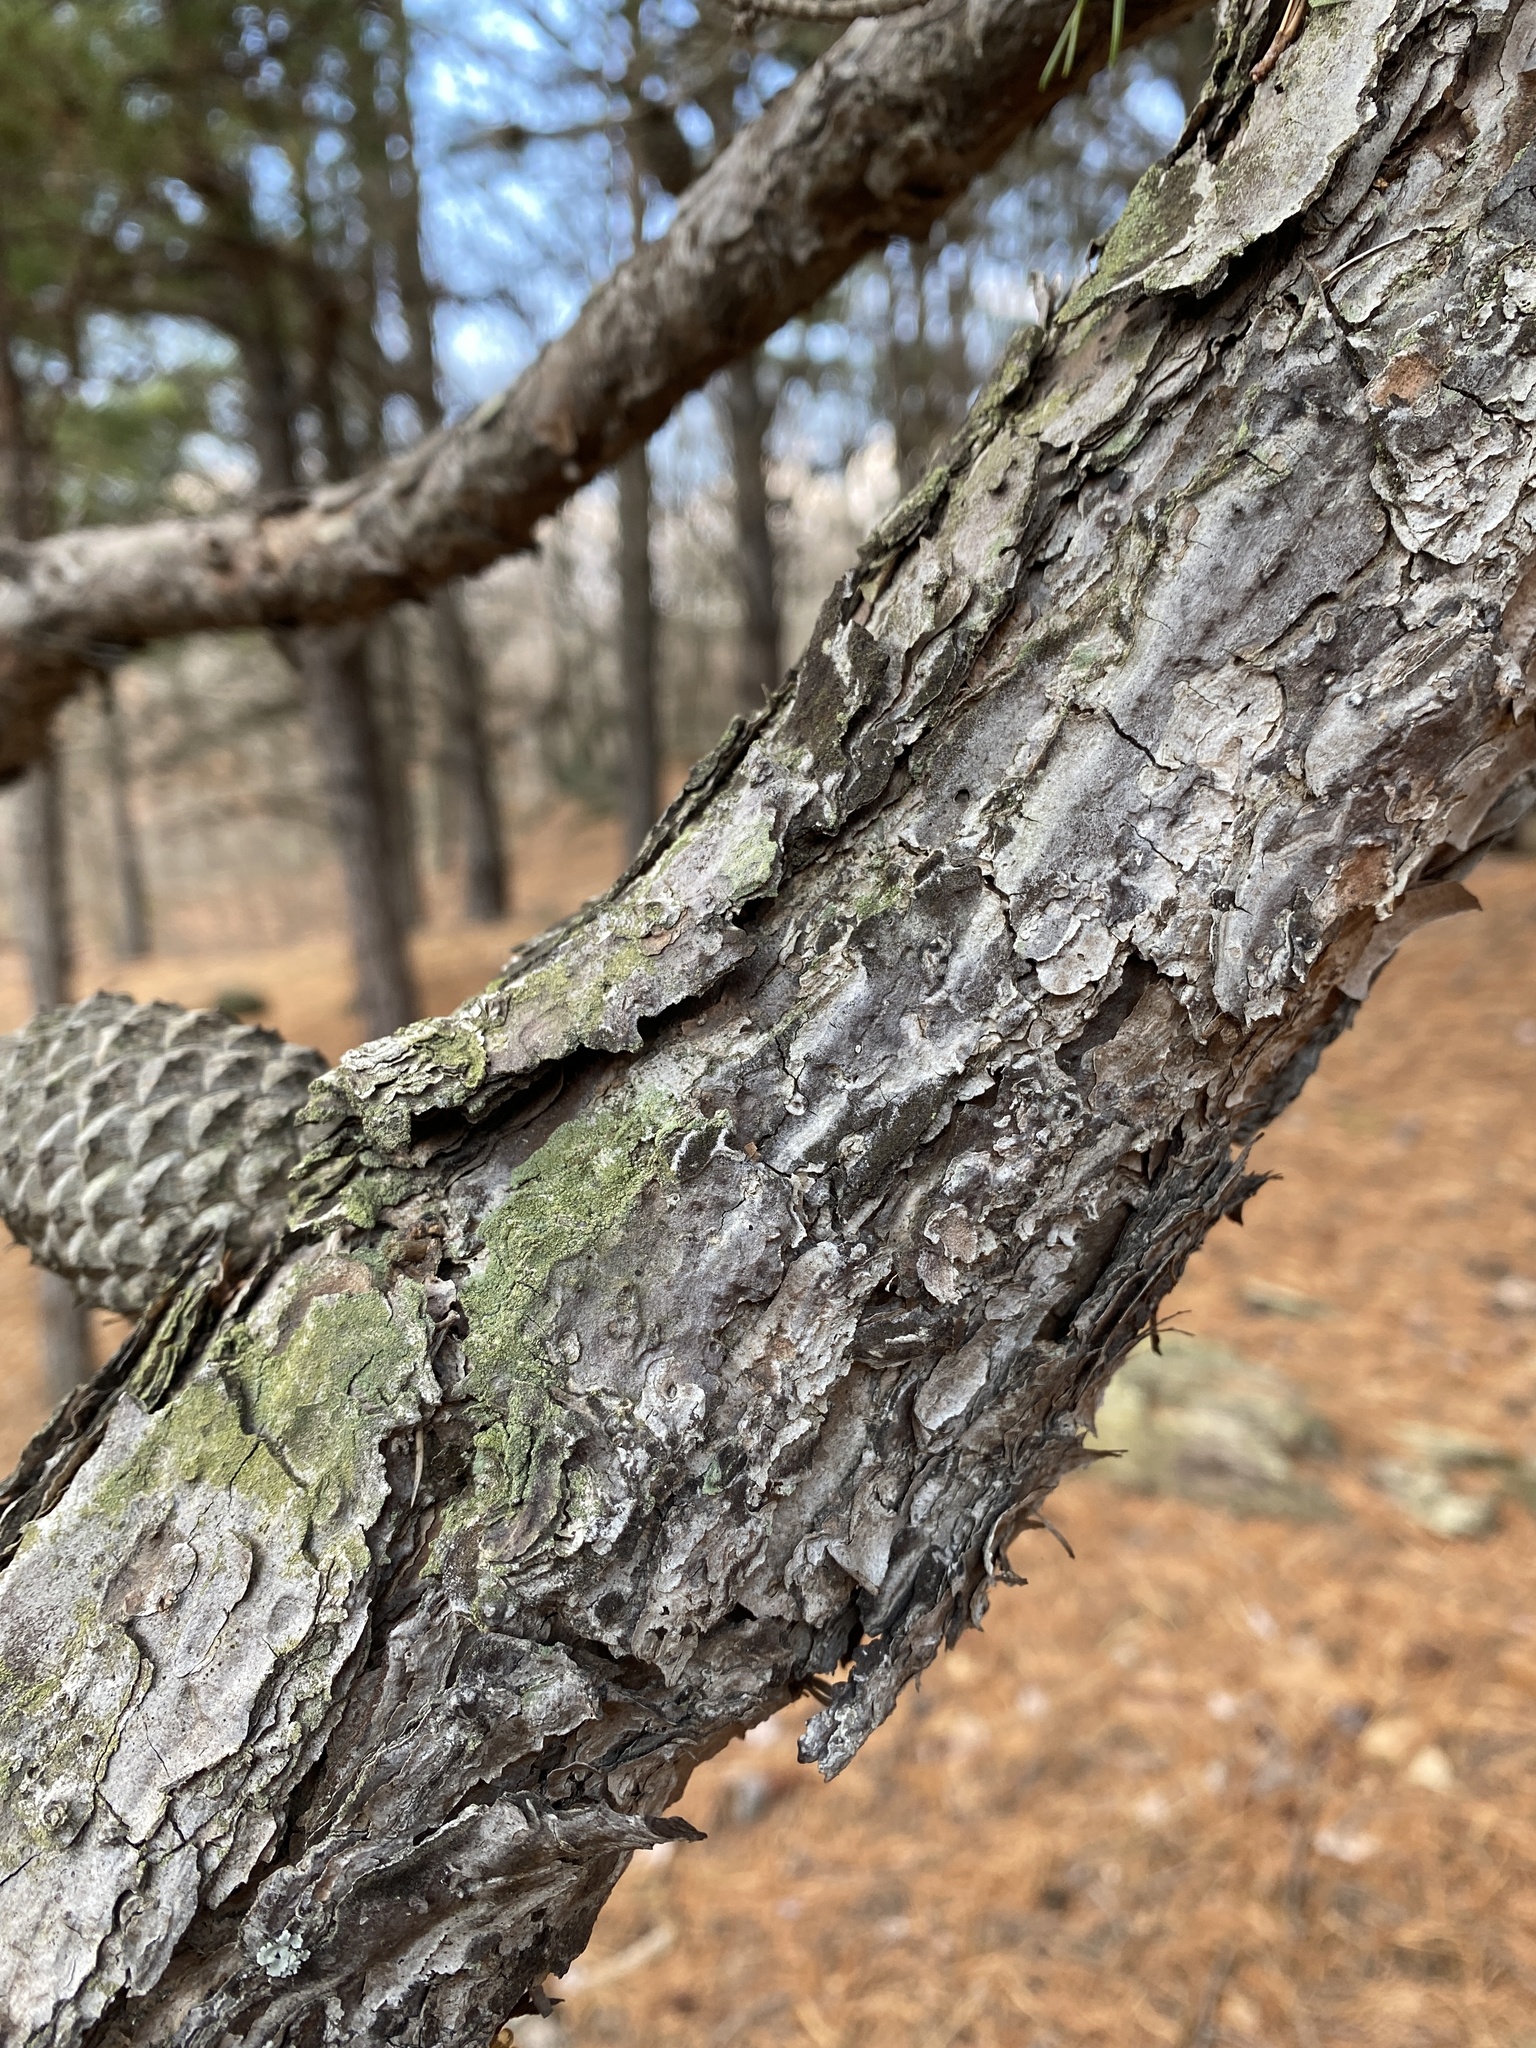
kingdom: Plantae
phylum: Tracheophyta
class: Pinopsida
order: Pinales
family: Pinaceae
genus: Pinus
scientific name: Pinus rigida
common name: Pitch pine
